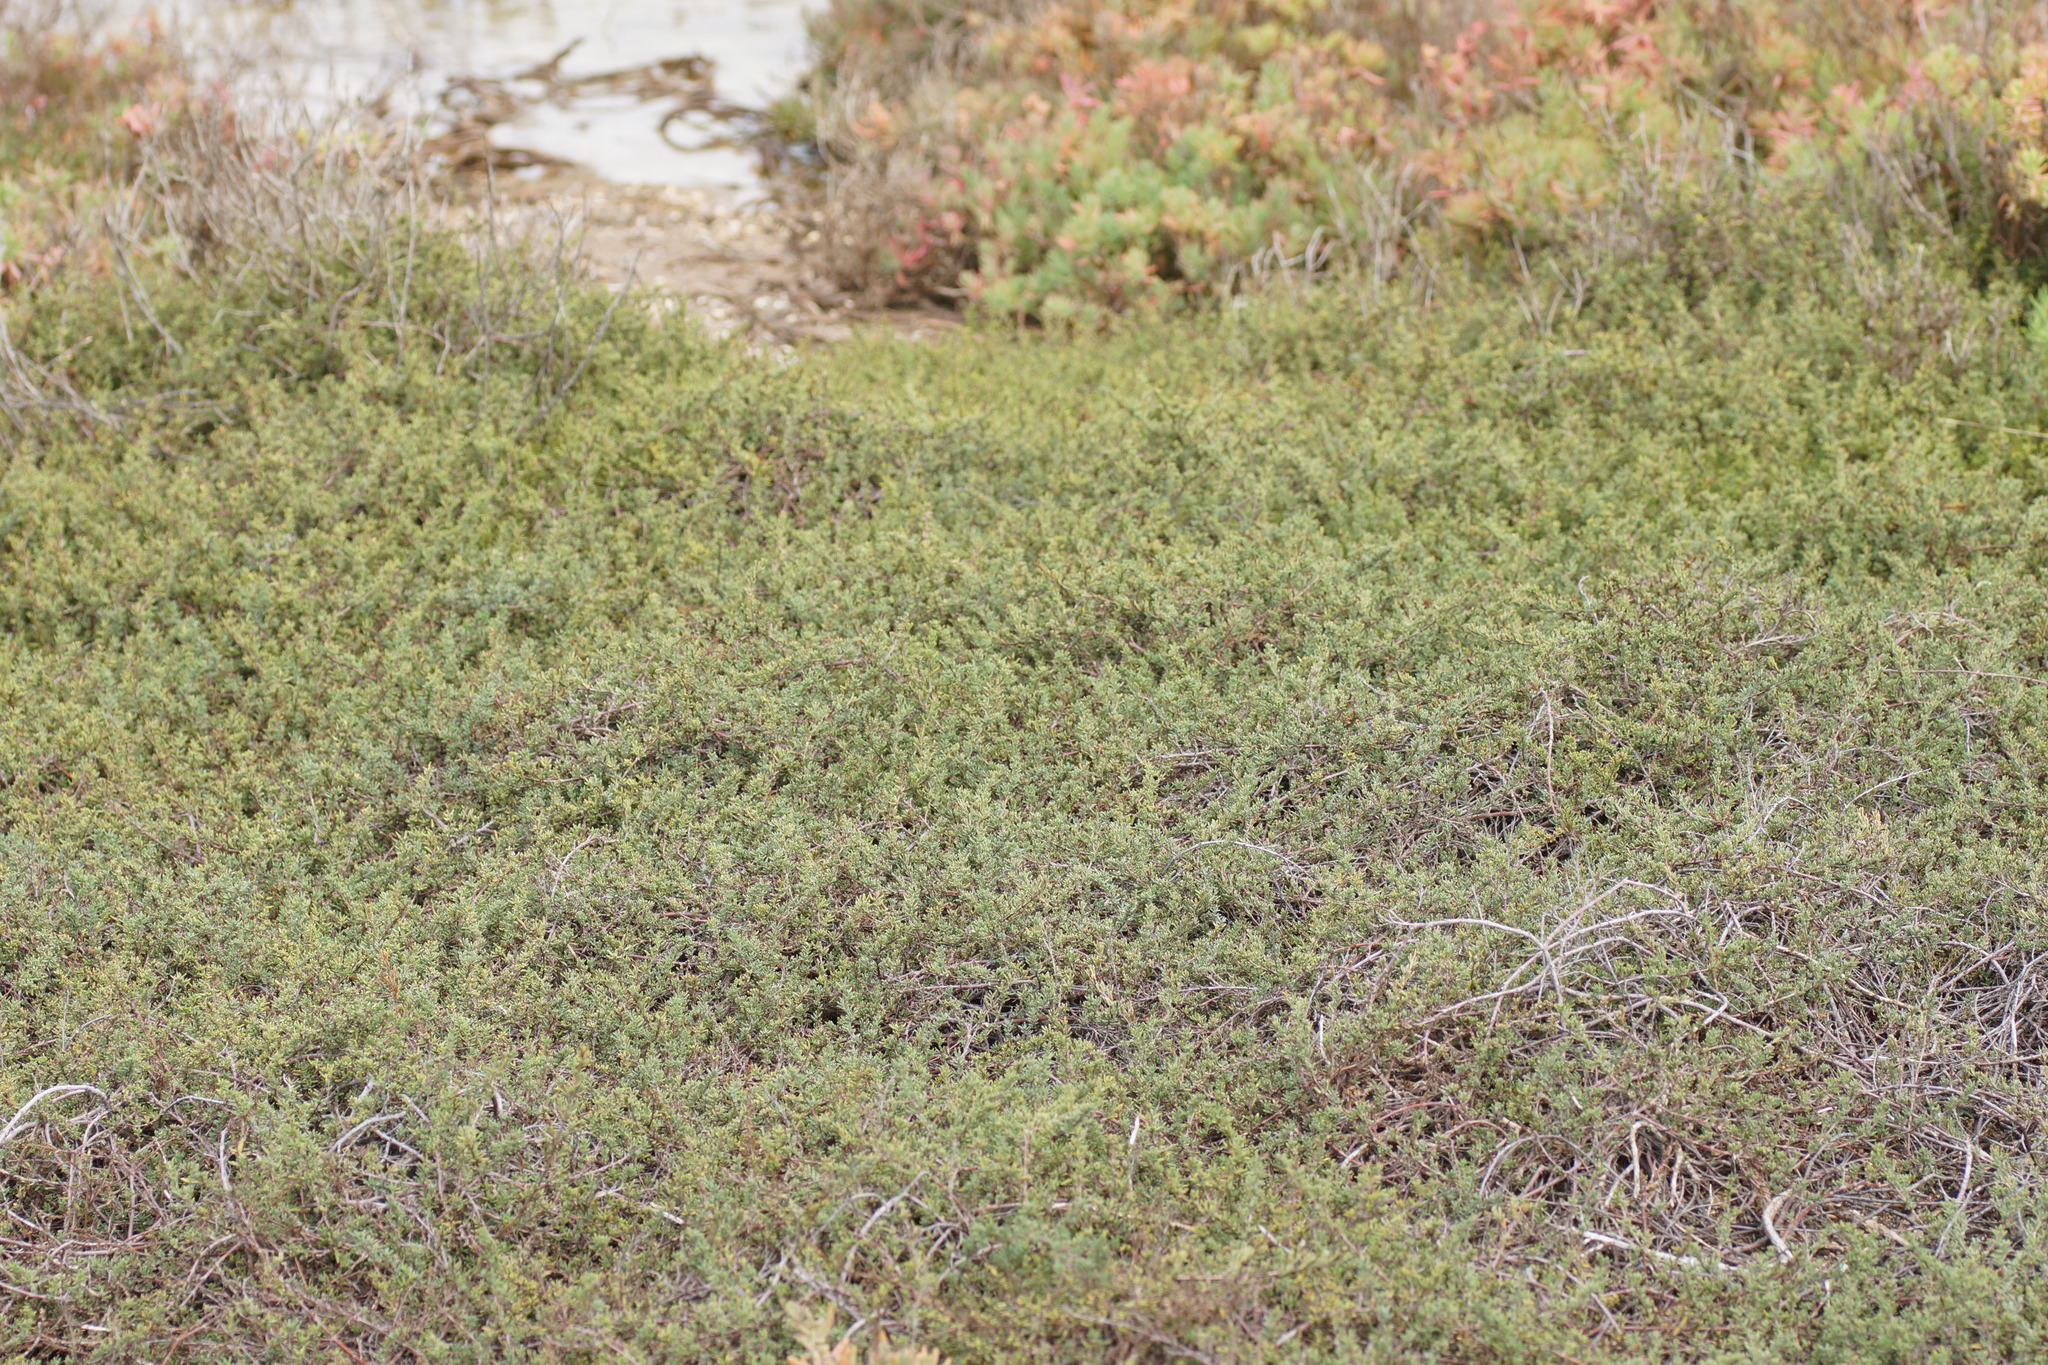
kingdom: Plantae
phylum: Tracheophyta
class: Magnoliopsida
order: Caryophyllales
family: Frankeniaceae
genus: Frankenia
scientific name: Frankenia pauciflora
